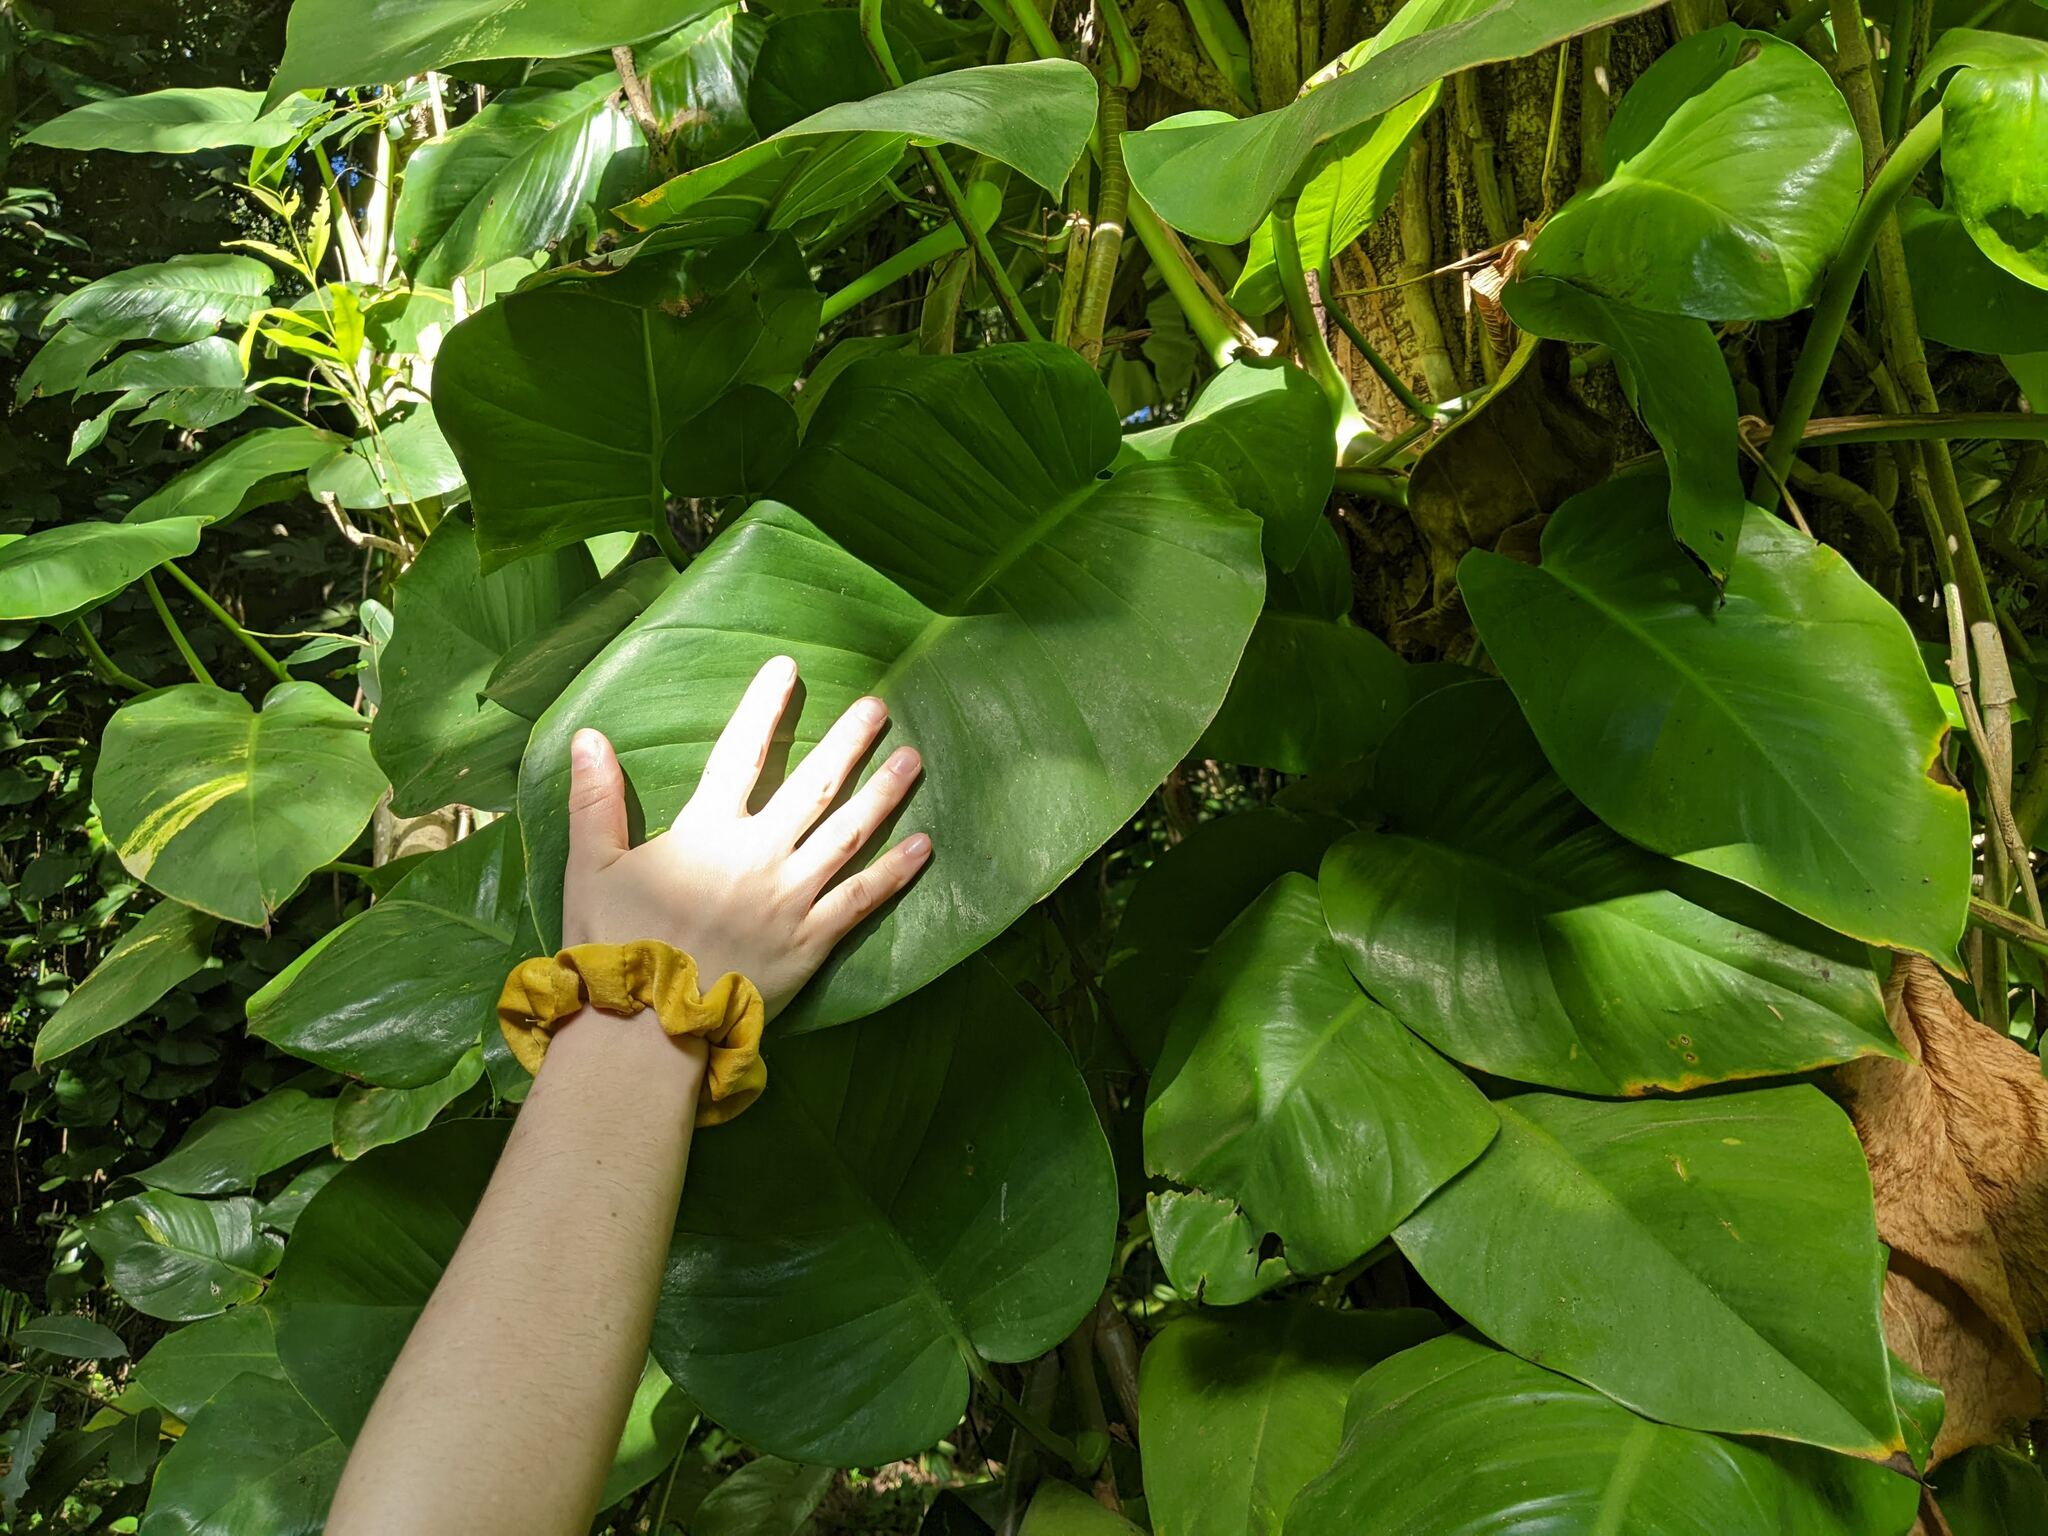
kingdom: Plantae
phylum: Tracheophyta
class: Liliopsida
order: Alismatales
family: Araceae
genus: Epipremnum
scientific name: Epipremnum aureum
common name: Golden hunter's-robe
